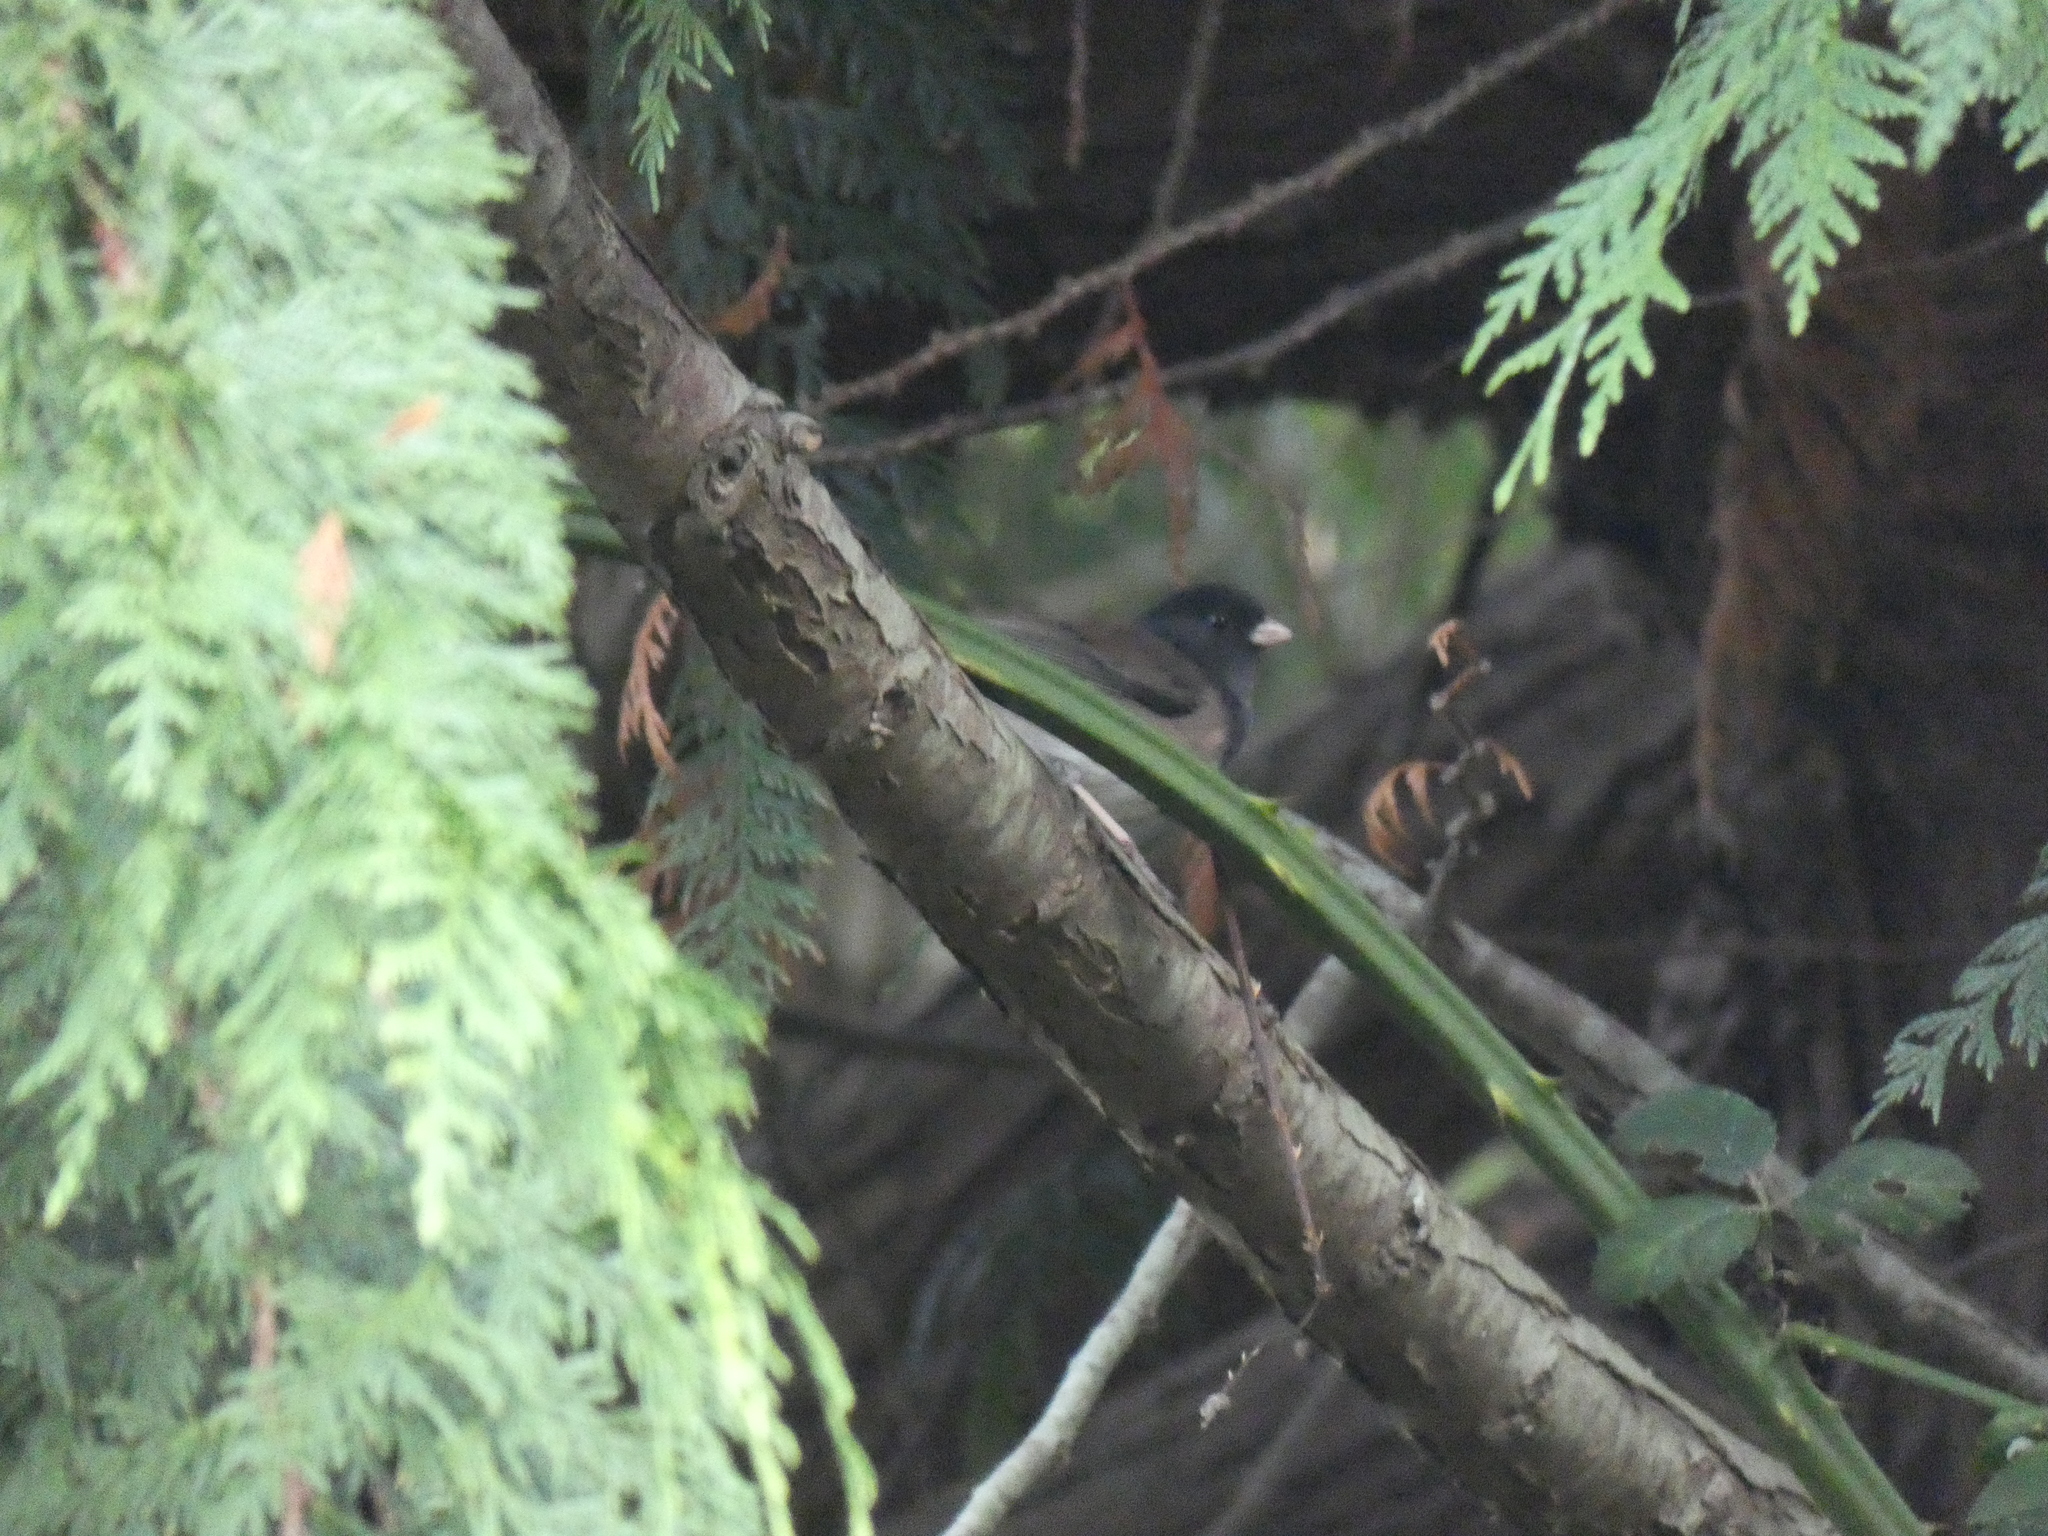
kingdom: Animalia
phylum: Chordata
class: Aves
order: Passeriformes
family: Passerellidae
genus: Junco
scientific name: Junco hyemalis
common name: Dark-eyed junco
